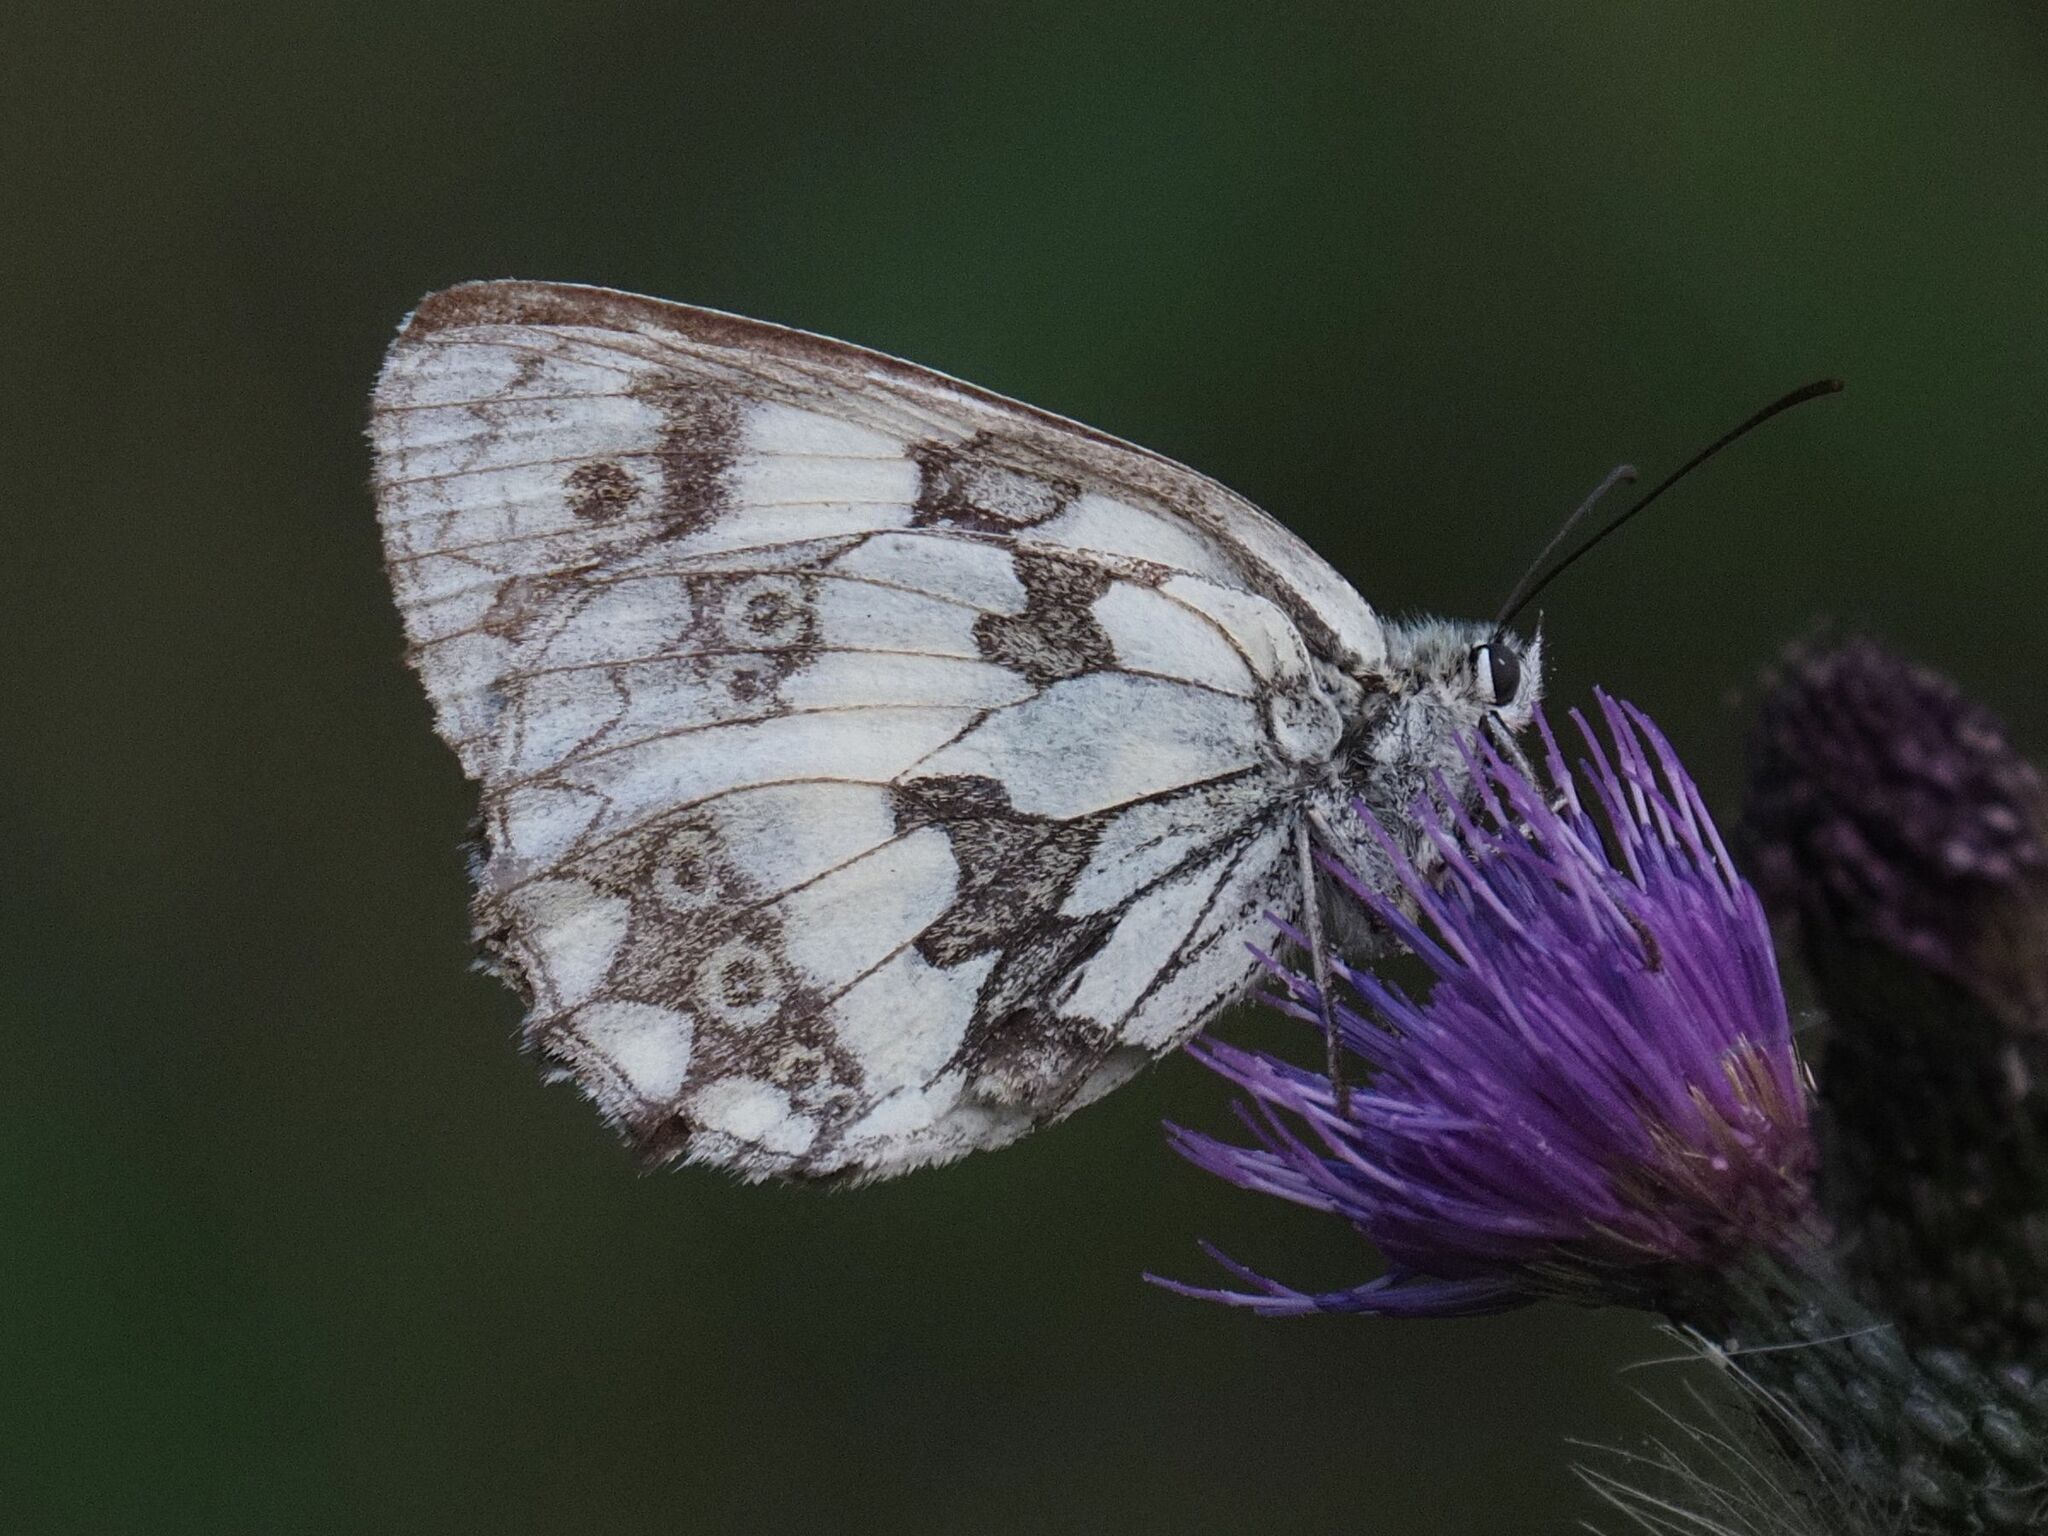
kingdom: Animalia
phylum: Arthropoda
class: Insecta
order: Lepidoptera
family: Nymphalidae
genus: Melanargia
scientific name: Melanargia galathea
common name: Marbled white
